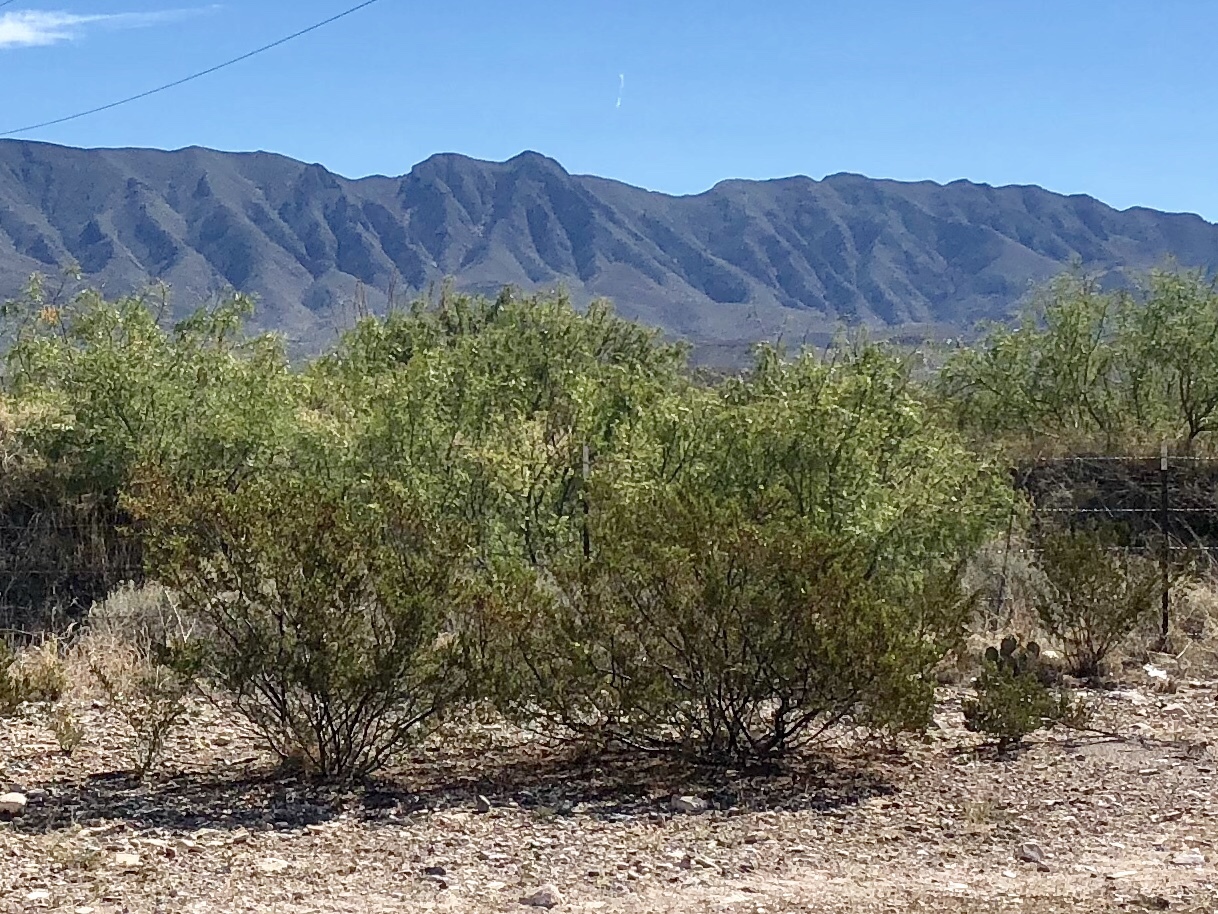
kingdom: Plantae
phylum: Tracheophyta
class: Magnoliopsida
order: Zygophyllales
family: Zygophyllaceae
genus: Larrea
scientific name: Larrea tridentata
